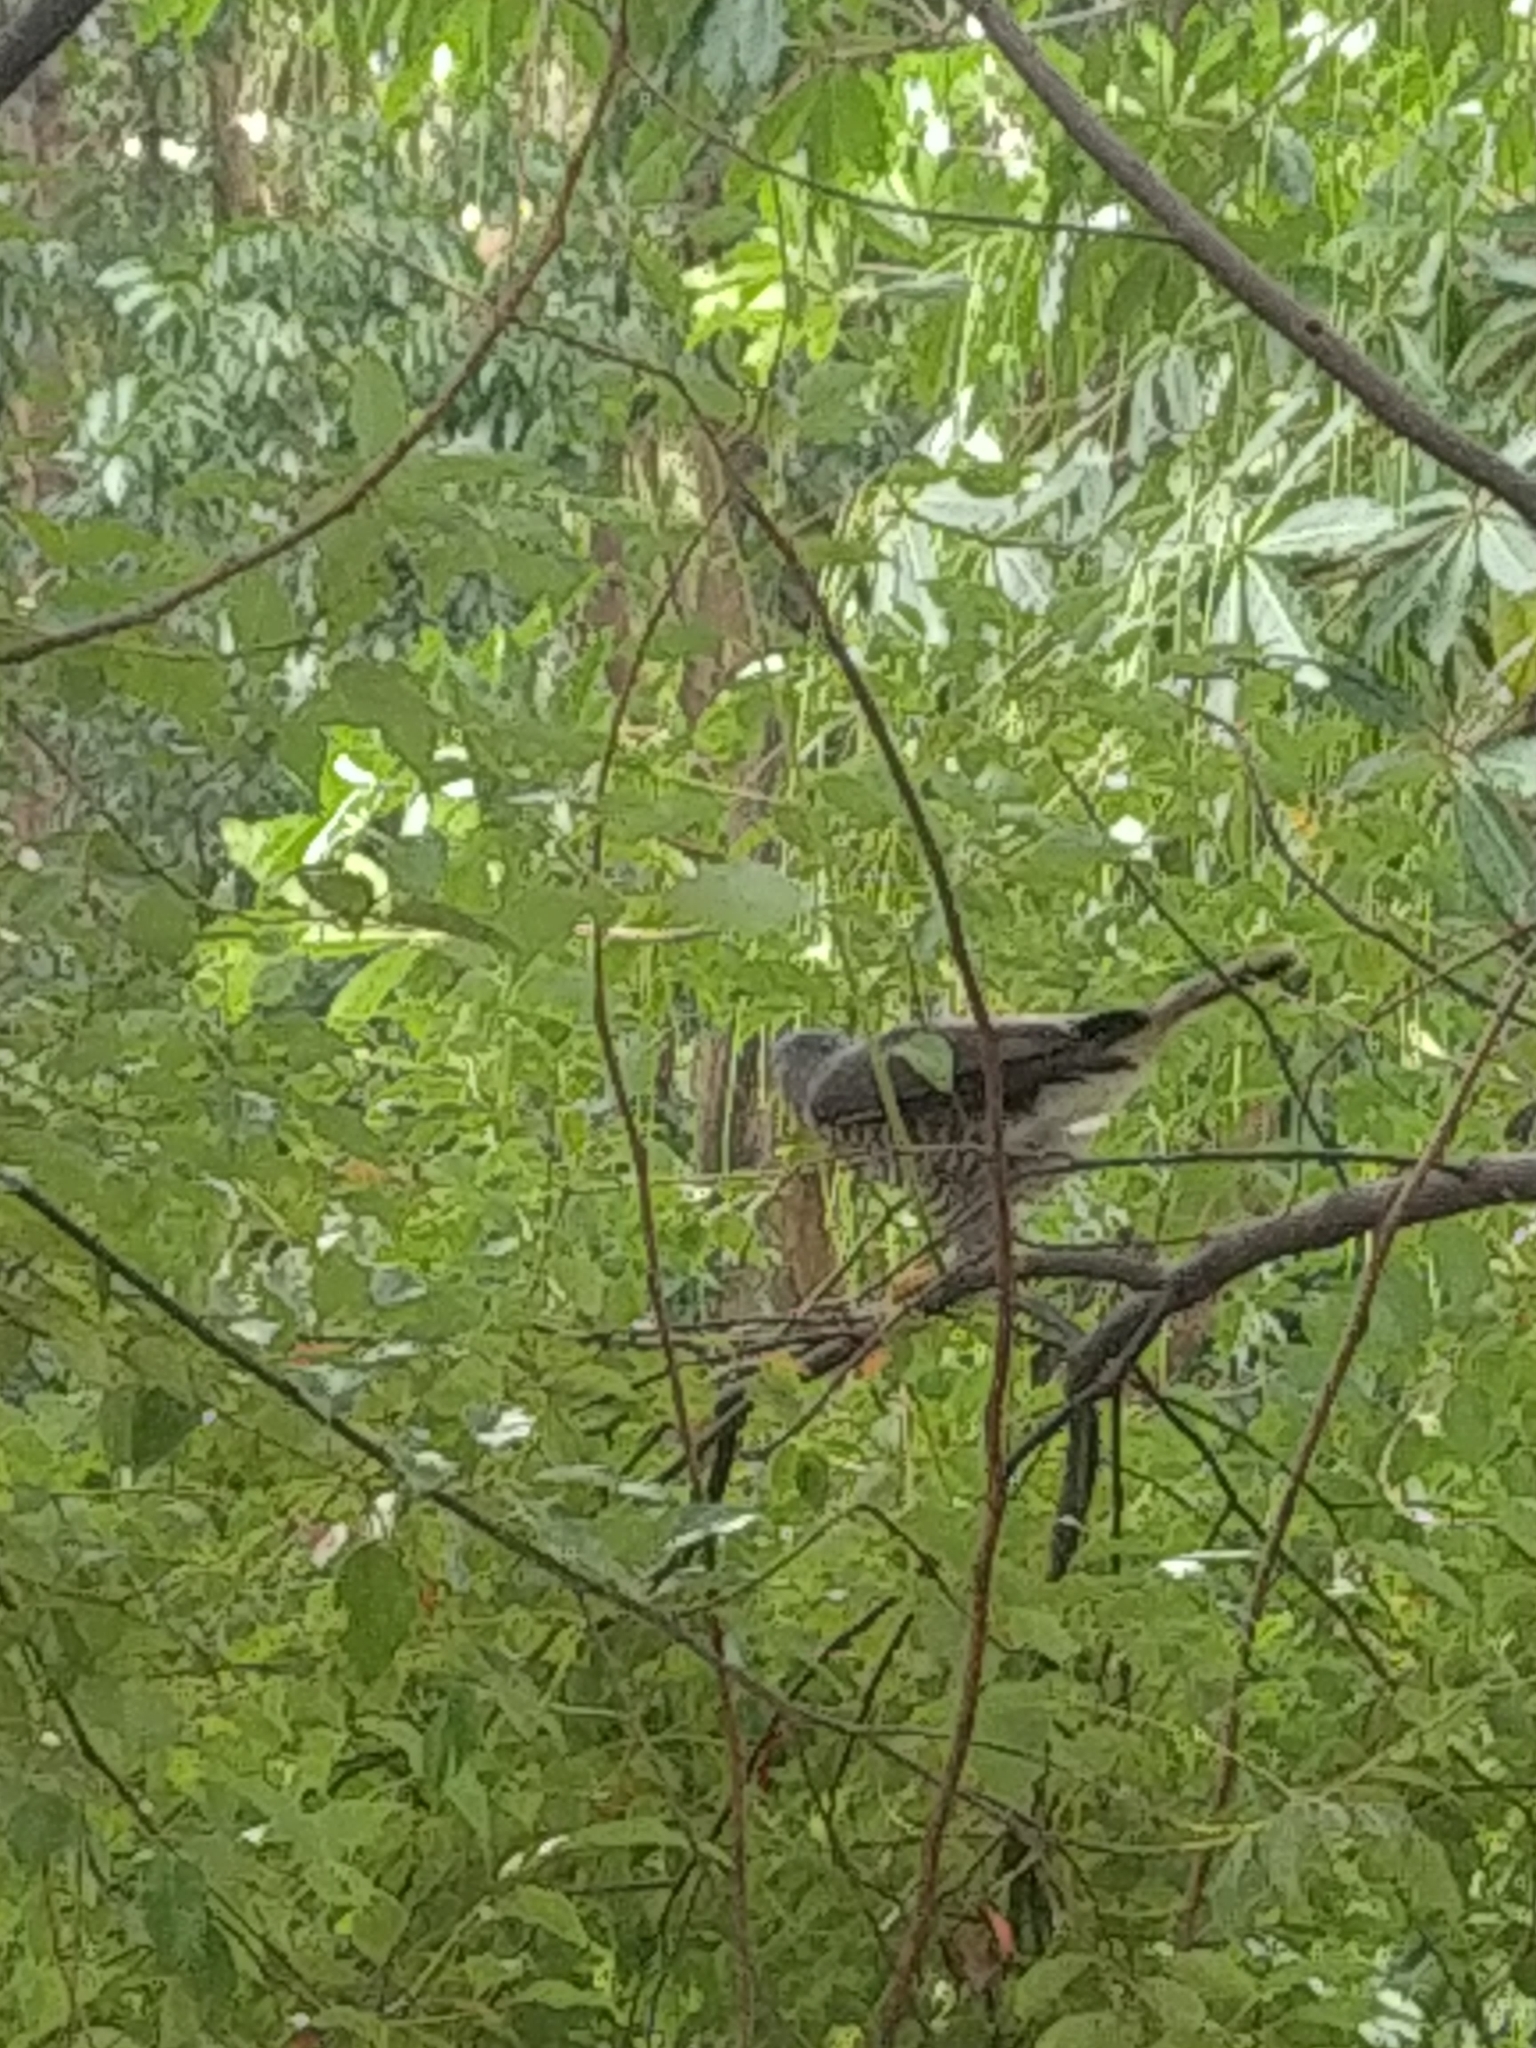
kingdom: Animalia
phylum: Chordata
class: Aves
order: Accipitriformes
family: Accipitridae
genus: Accipiter
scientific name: Accipiter trivirgatus
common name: Crested goshawk
